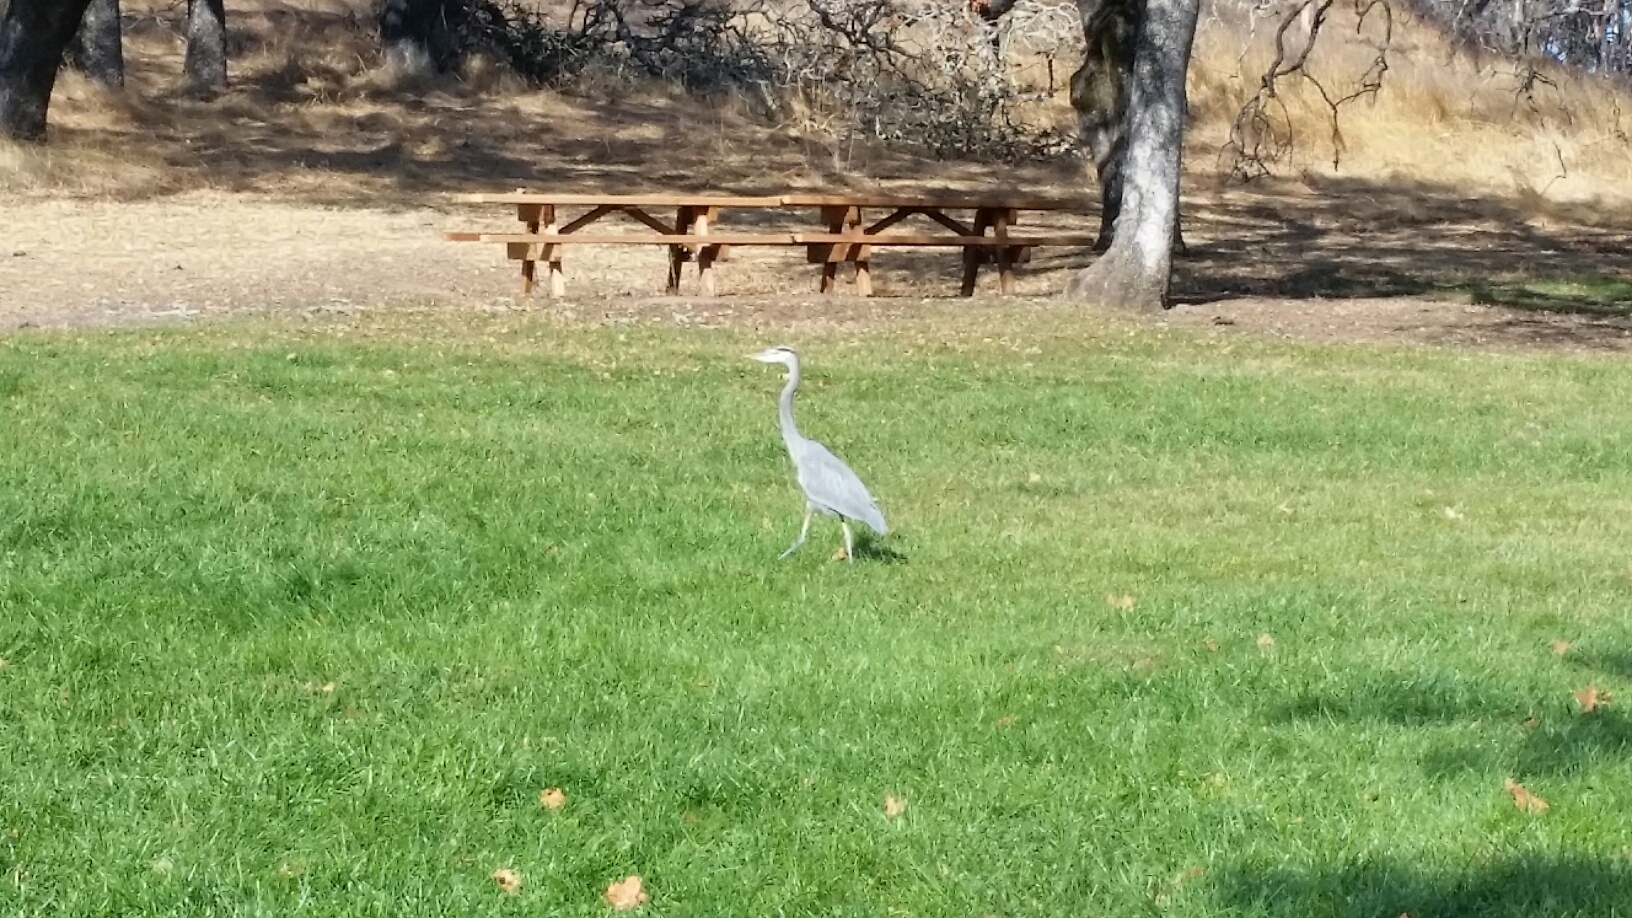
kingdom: Animalia
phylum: Chordata
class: Aves
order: Pelecaniformes
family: Ardeidae
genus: Ardea
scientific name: Ardea herodias
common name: Great blue heron
